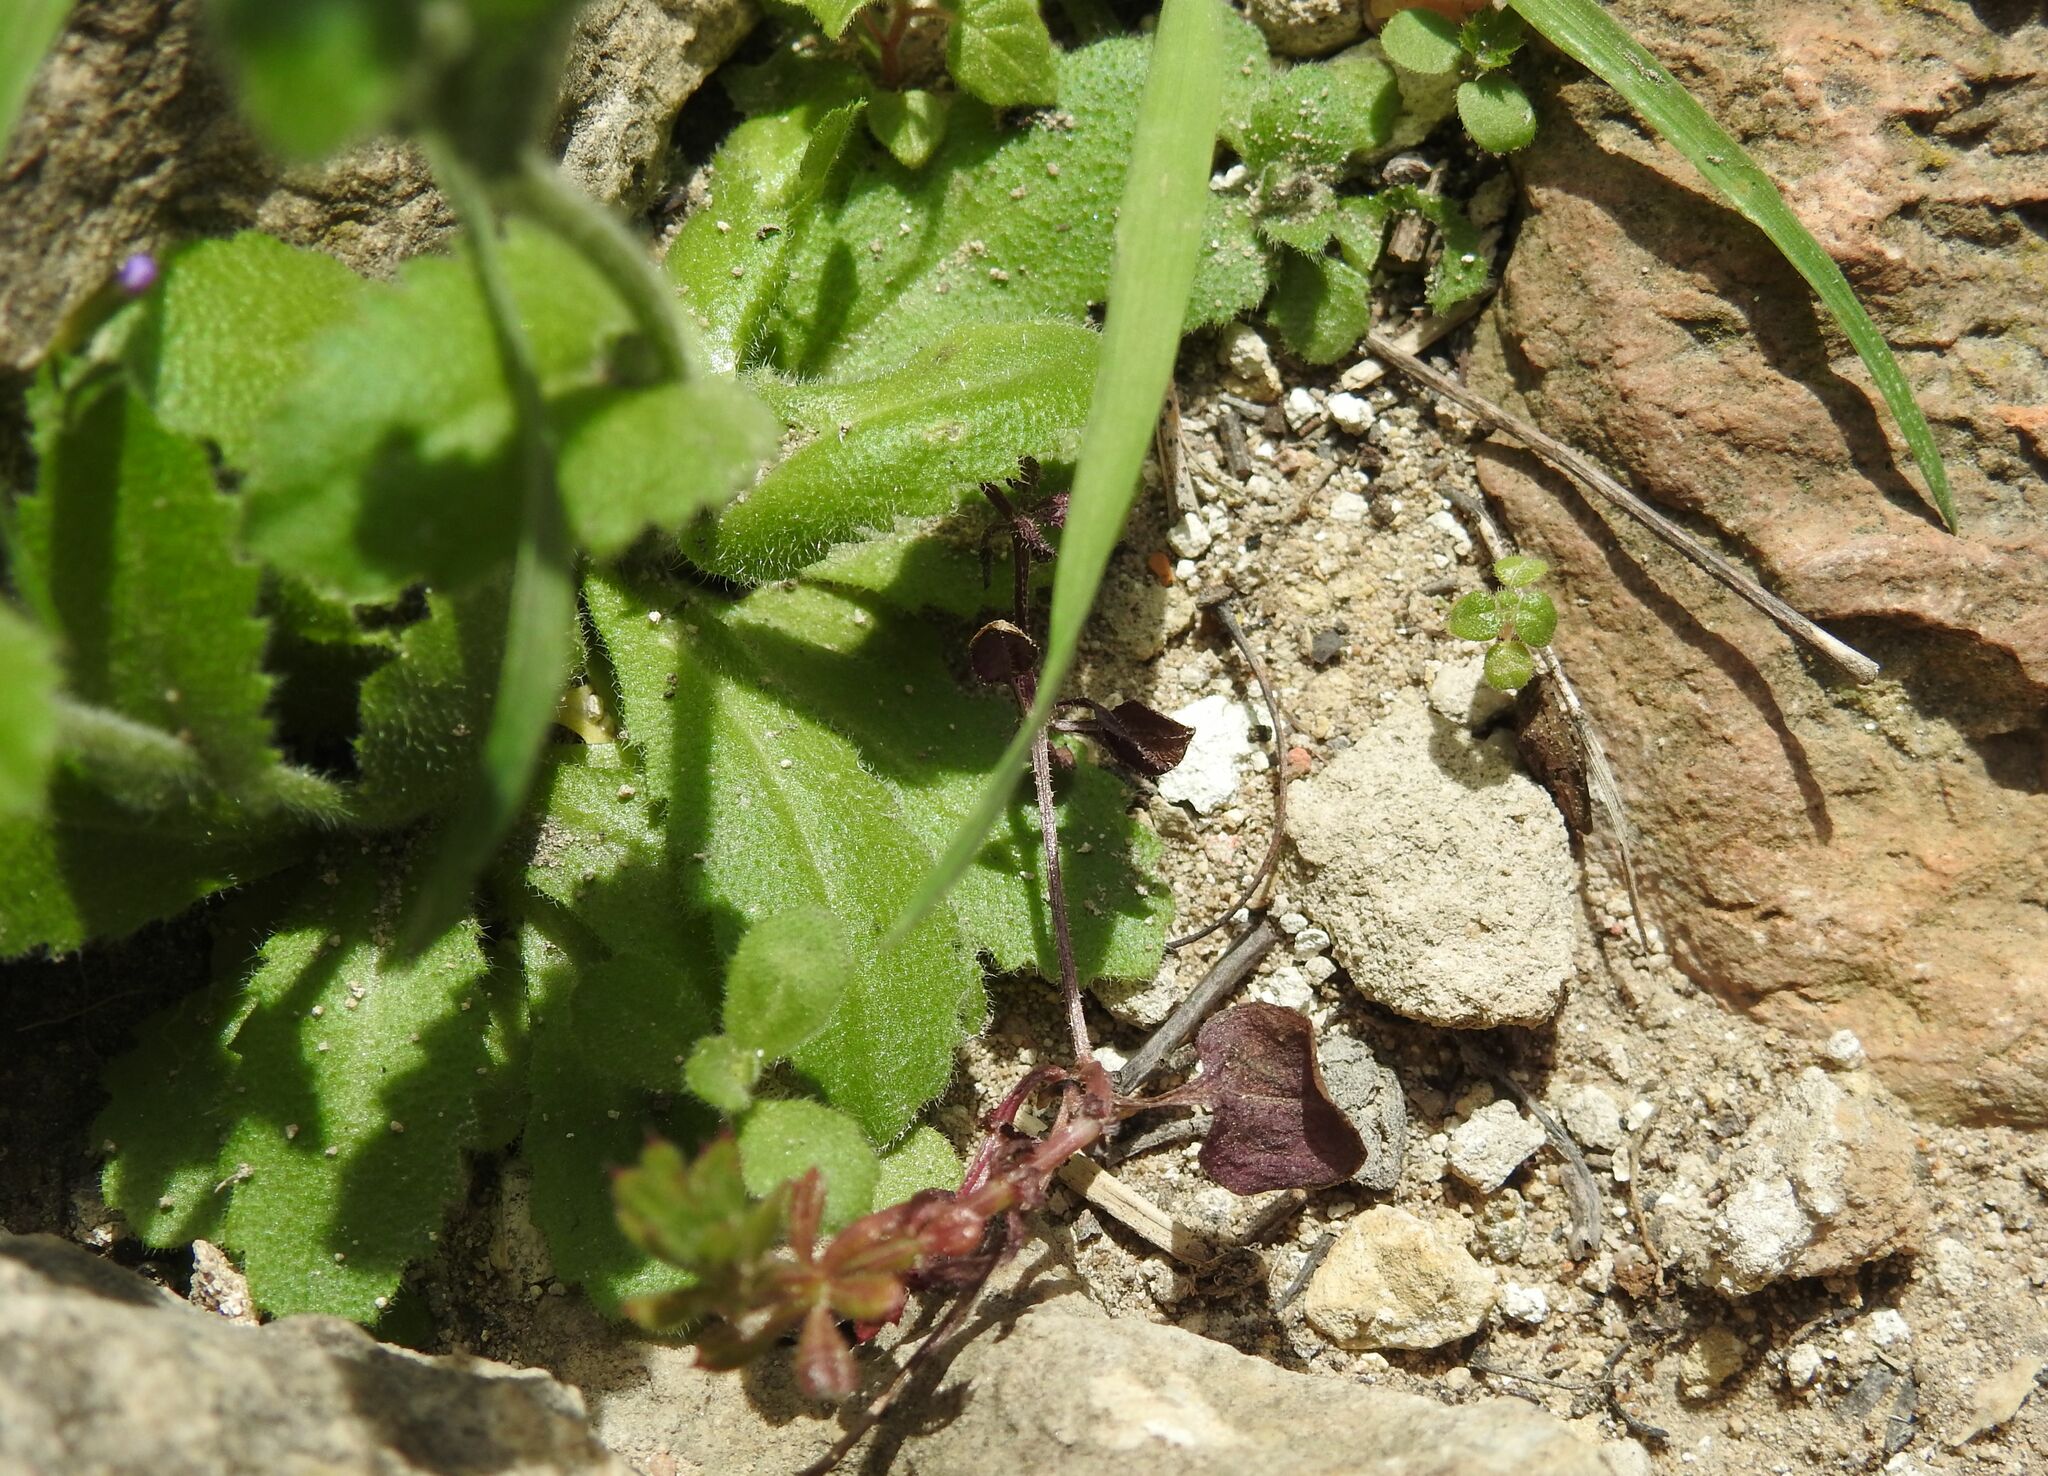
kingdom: Plantae
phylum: Tracheophyta
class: Magnoliopsida
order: Brassicales
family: Brassicaceae
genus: Arabis
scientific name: Arabis verna
